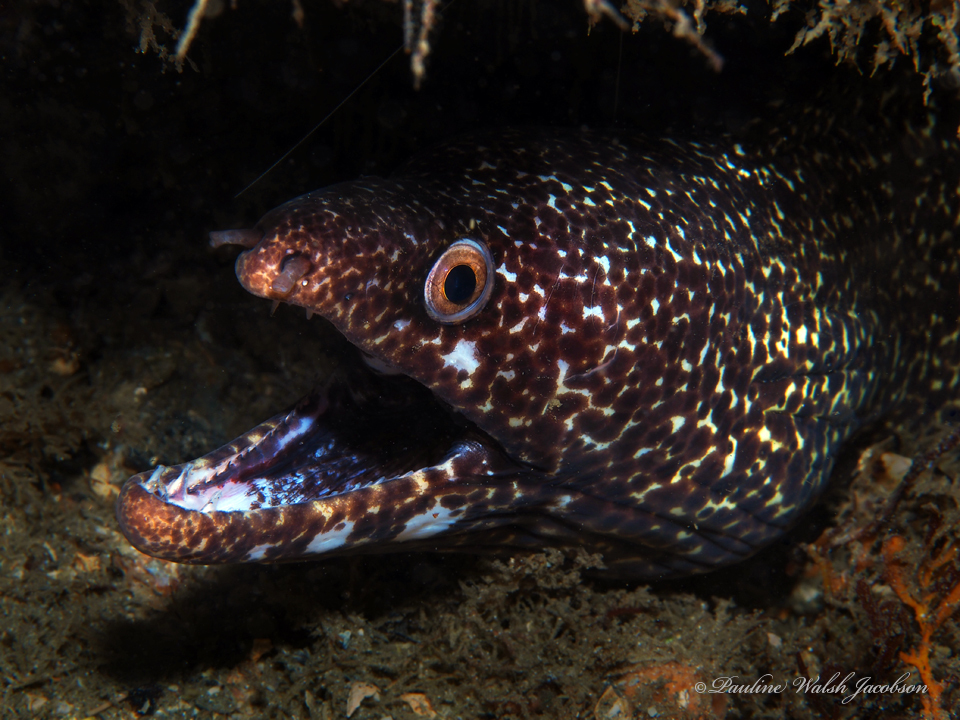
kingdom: Animalia
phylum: Chordata
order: Anguilliformes
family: Muraenidae
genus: Gymnothorax
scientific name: Gymnothorax moringa
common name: Spotted moray
